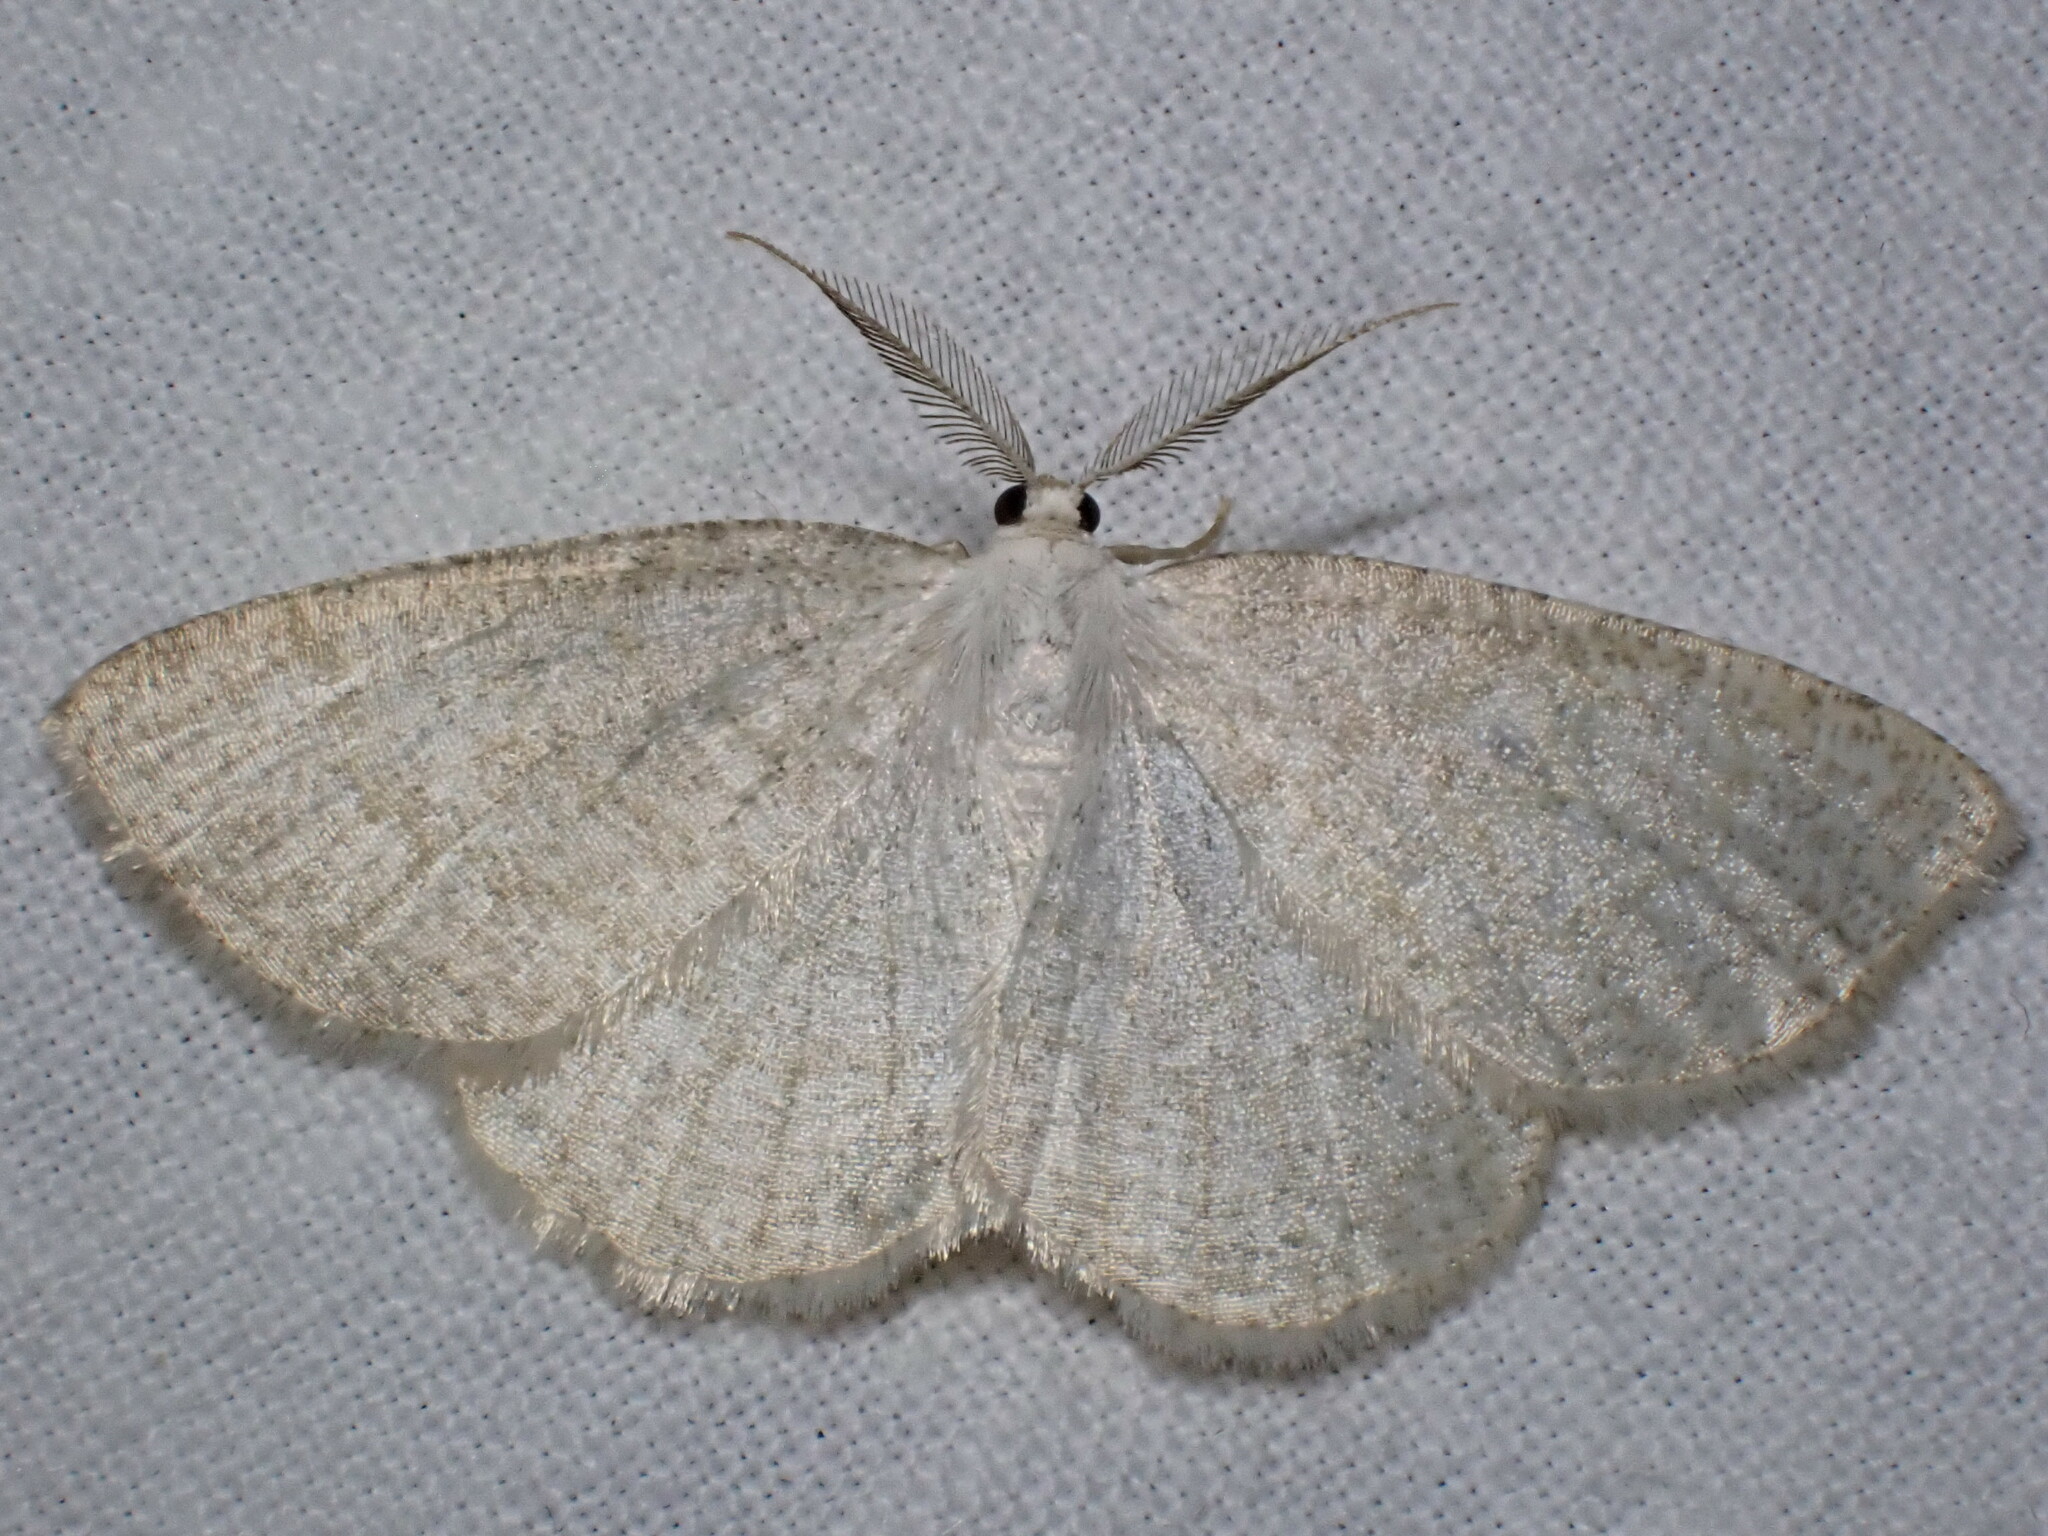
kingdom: Animalia
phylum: Arthropoda
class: Insecta
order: Lepidoptera
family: Geometridae
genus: Cabera
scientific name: Cabera exanthemata
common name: Common wave
